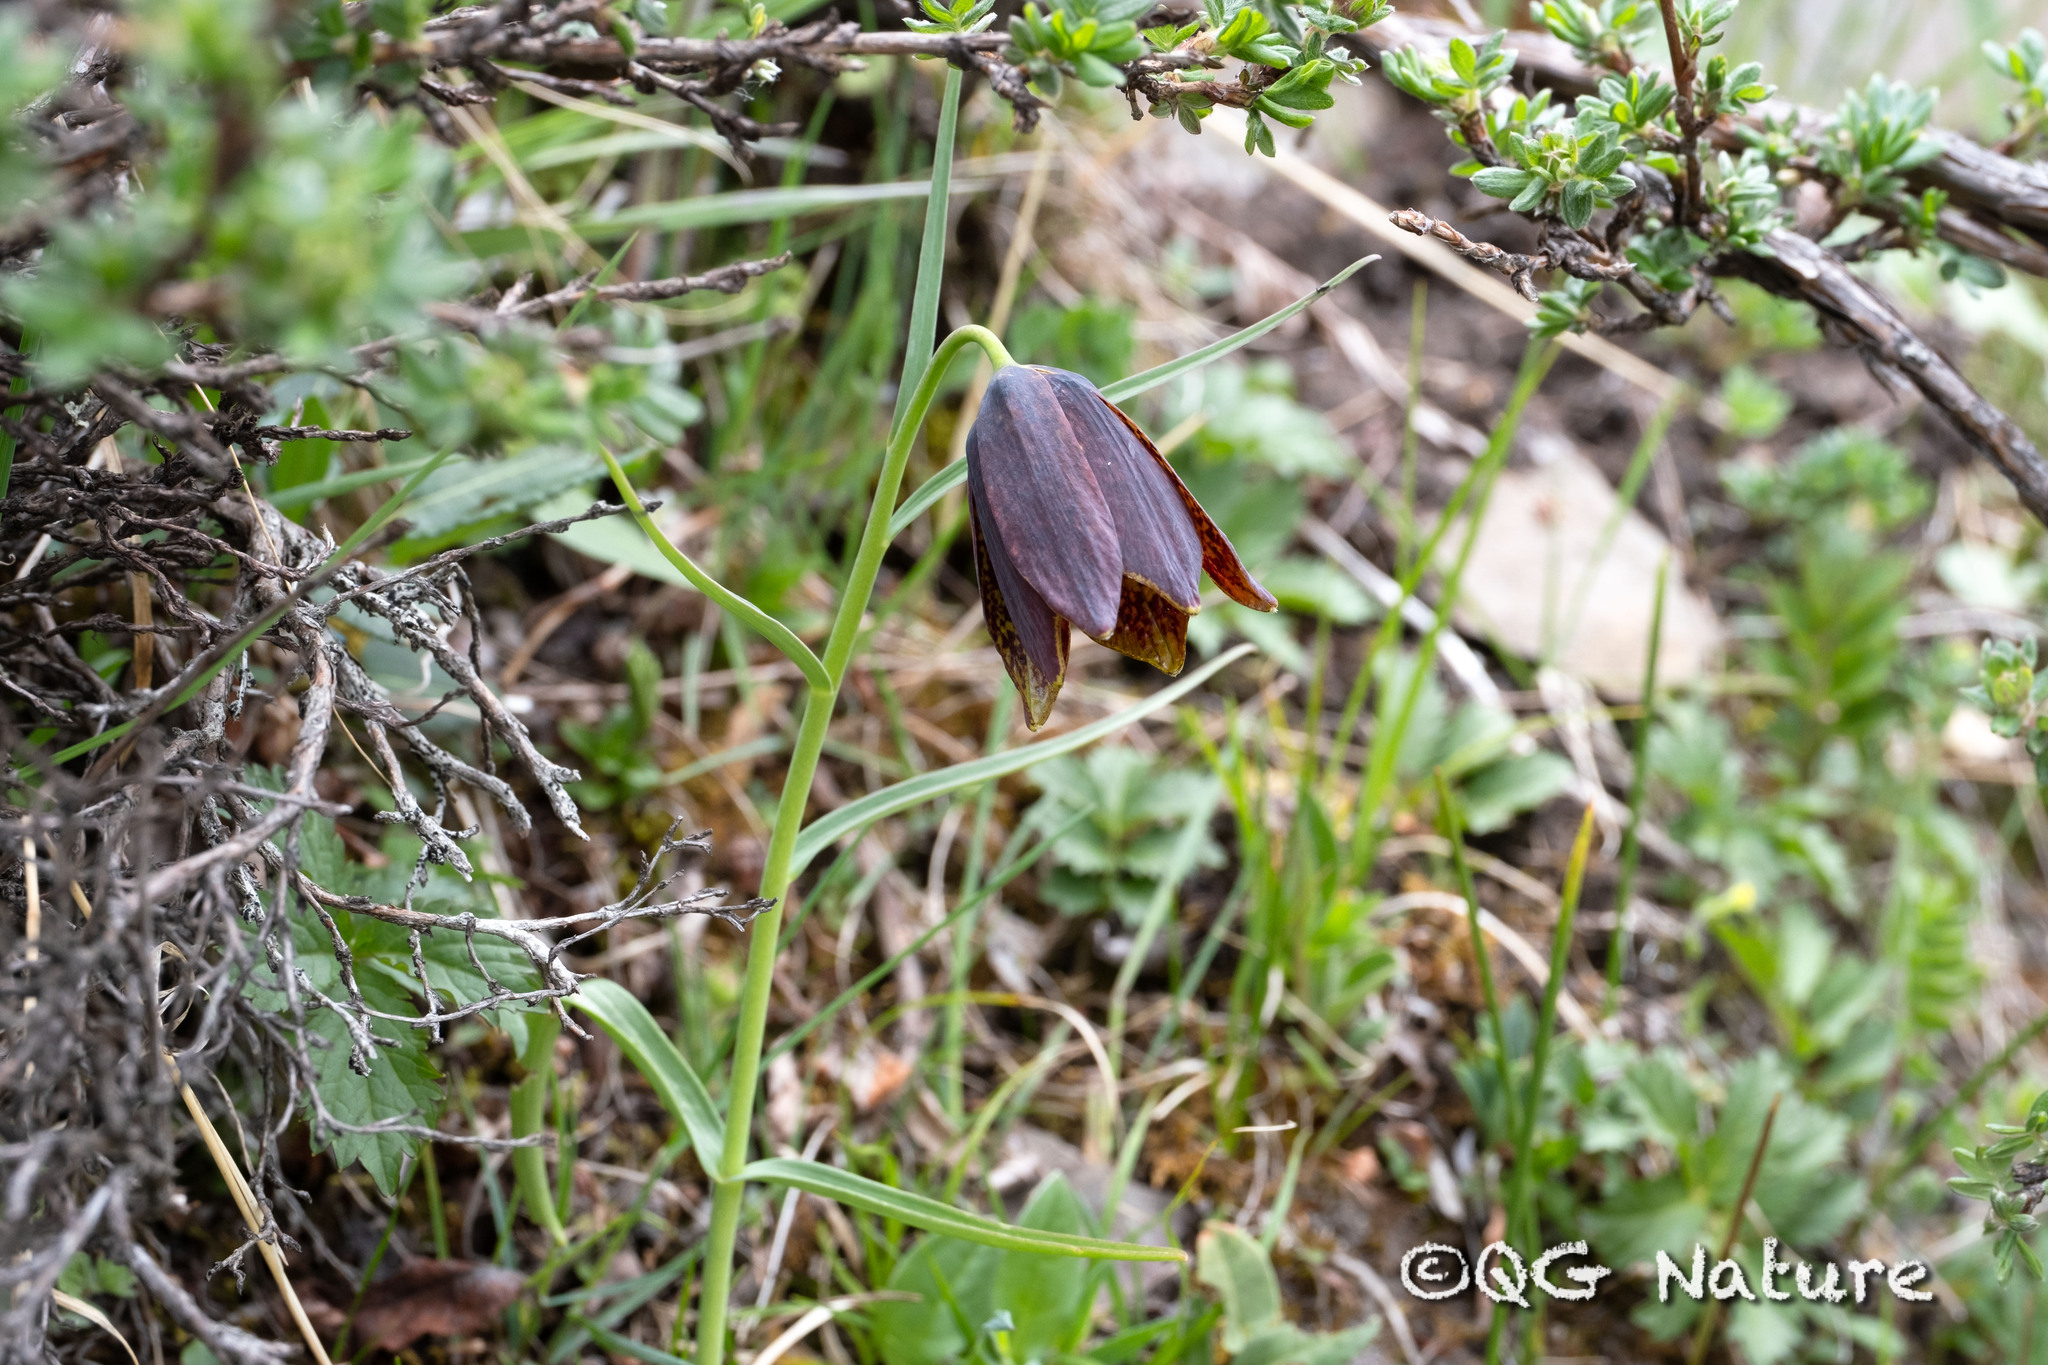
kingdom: Plantae
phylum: Tracheophyta
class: Liliopsida
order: Liliales
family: Liliaceae
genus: Fritillaria
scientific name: Fritillaria unibracteata
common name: Sichuan fritillary
